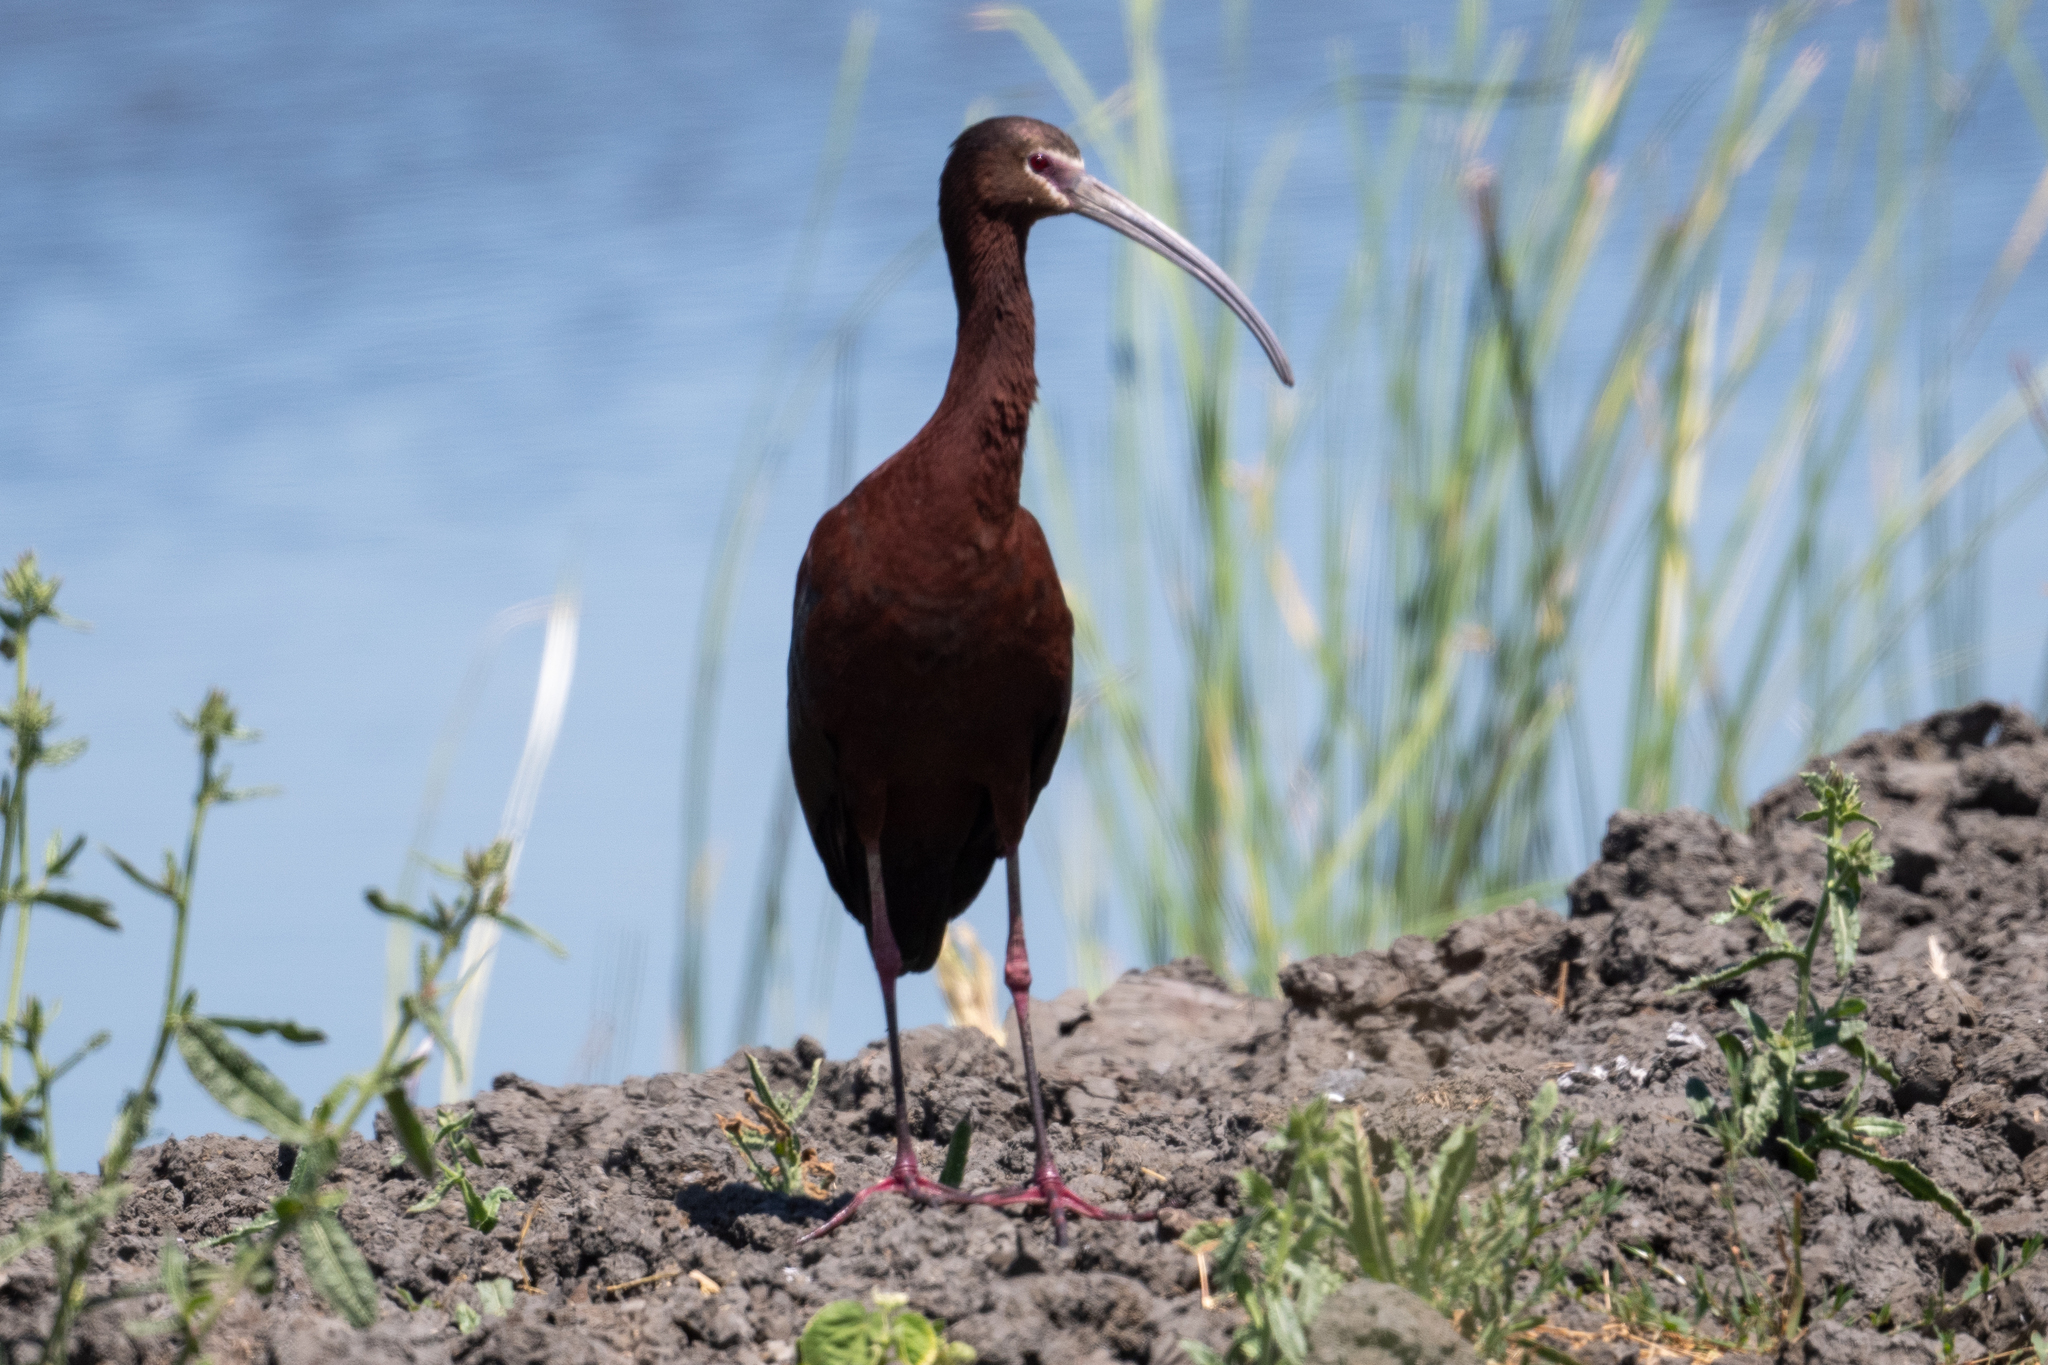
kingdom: Animalia
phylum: Chordata
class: Aves
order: Pelecaniformes
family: Threskiornithidae
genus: Plegadis
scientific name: Plegadis chihi
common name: White-faced ibis
